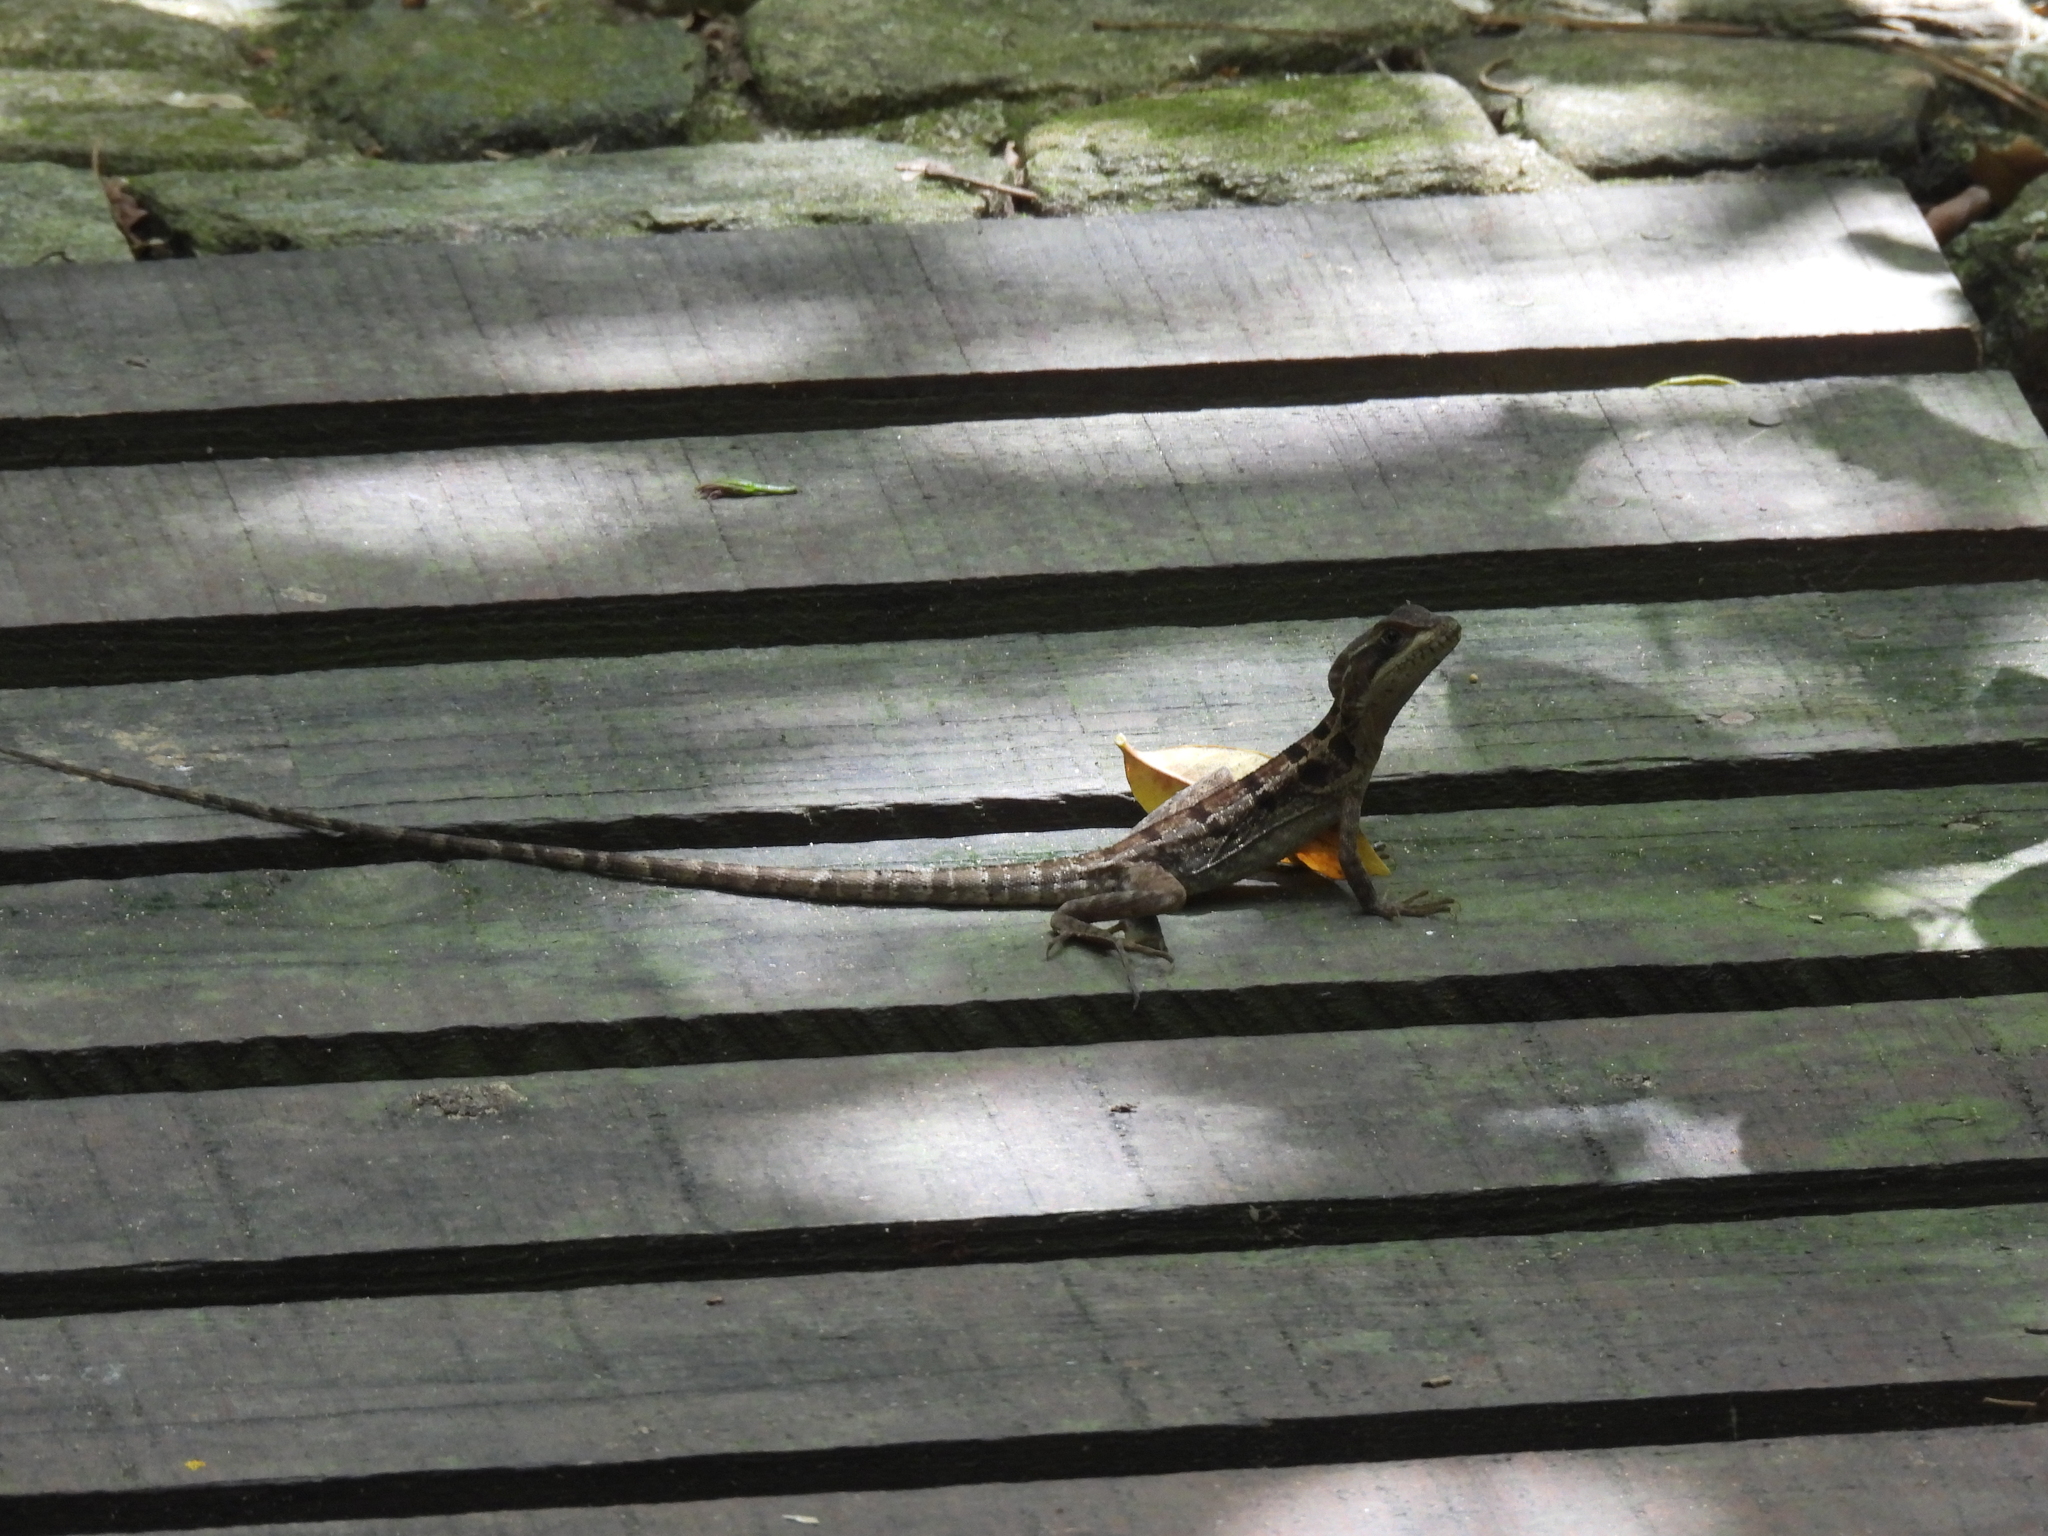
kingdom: Animalia
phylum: Chordata
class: Squamata
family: Corytophanidae
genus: Basiliscus
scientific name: Basiliscus vittatus
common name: Brown basilisk
